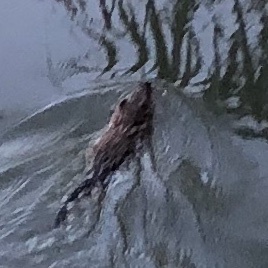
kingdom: Animalia
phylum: Chordata
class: Mammalia
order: Rodentia
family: Cricetidae
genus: Ondatra
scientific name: Ondatra zibethicus
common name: Muskrat
